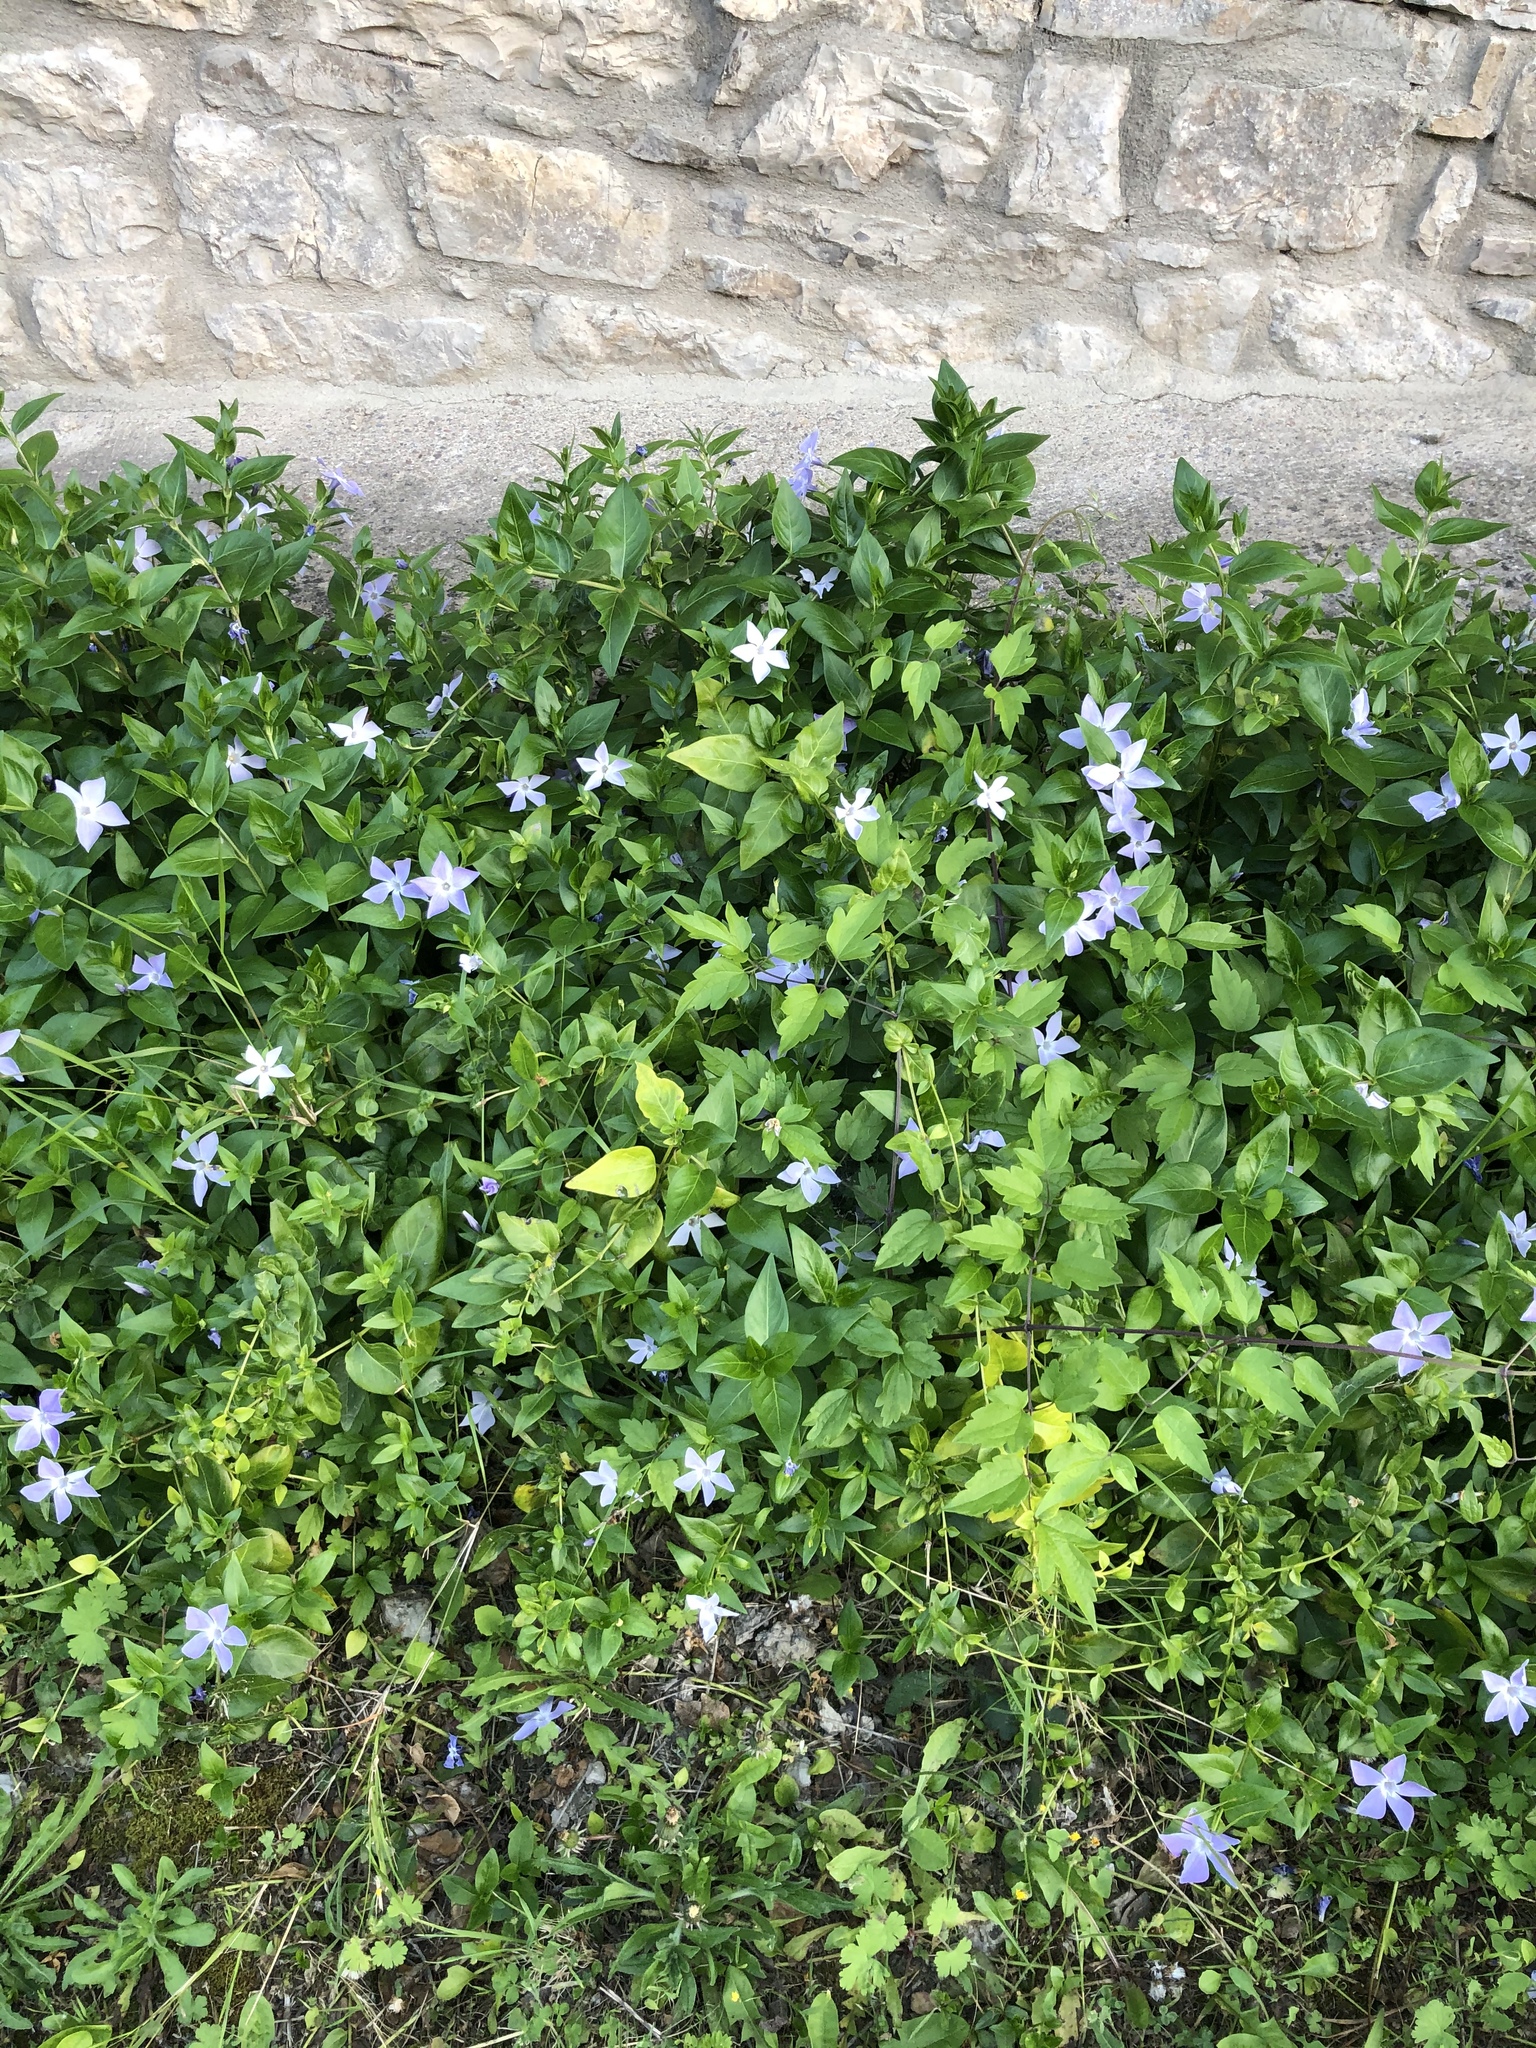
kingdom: Plantae
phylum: Tracheophyta
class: Magnoliopsida
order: Gentianales
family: Apocynaceae
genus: Vinca
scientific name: Vinca difformis
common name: Intermediate periwinkle
